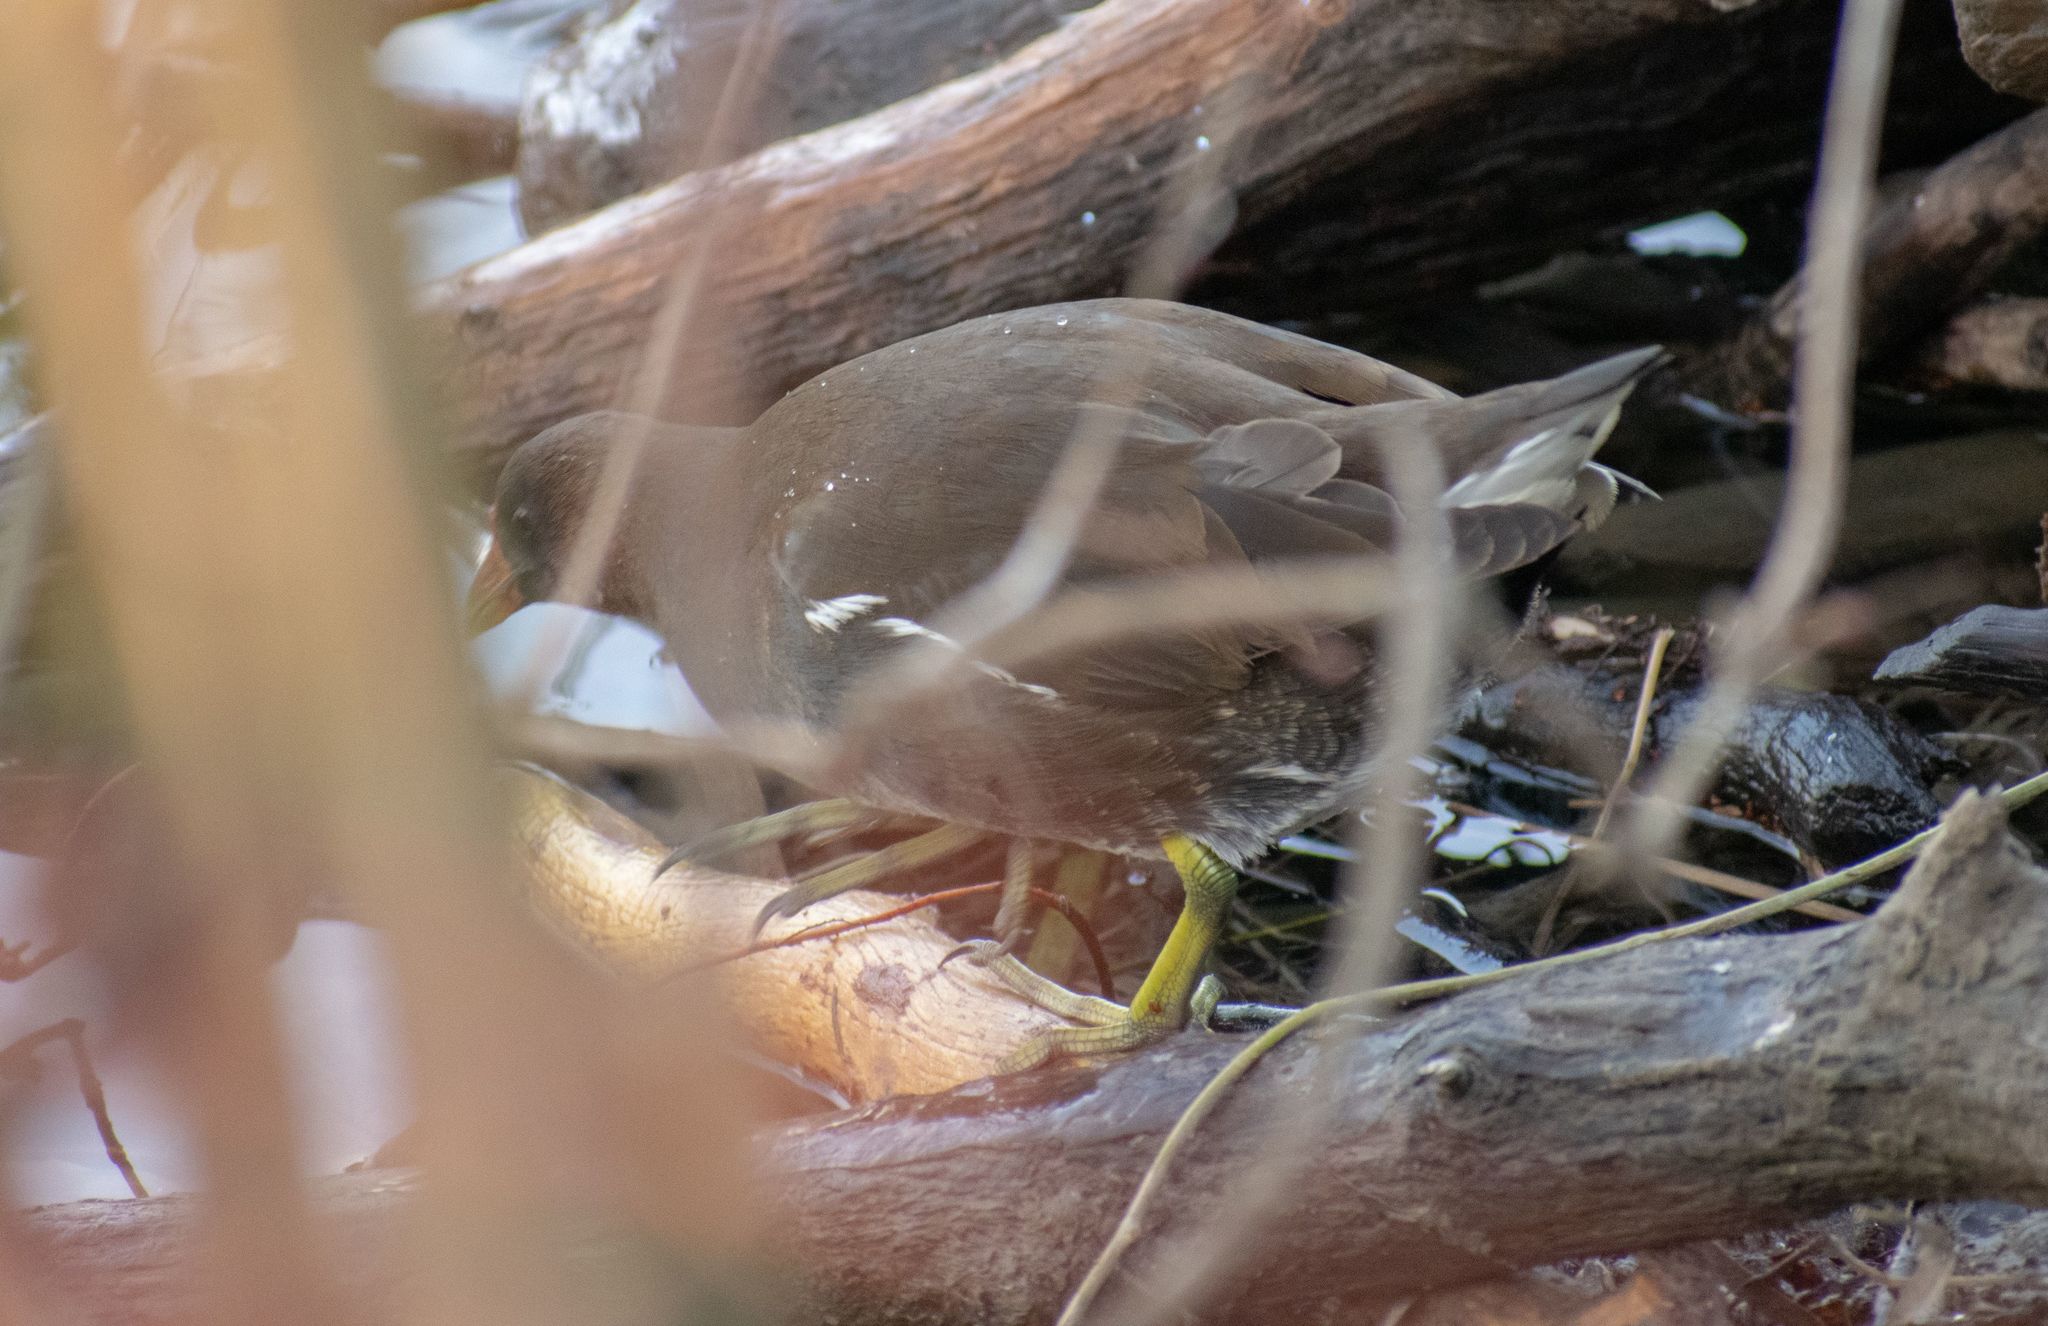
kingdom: Animalia
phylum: Chordata
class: Aves
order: Gruiformes
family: Rallidae
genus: Gallinula
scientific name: Gallinula chloropus
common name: Common moorhen
